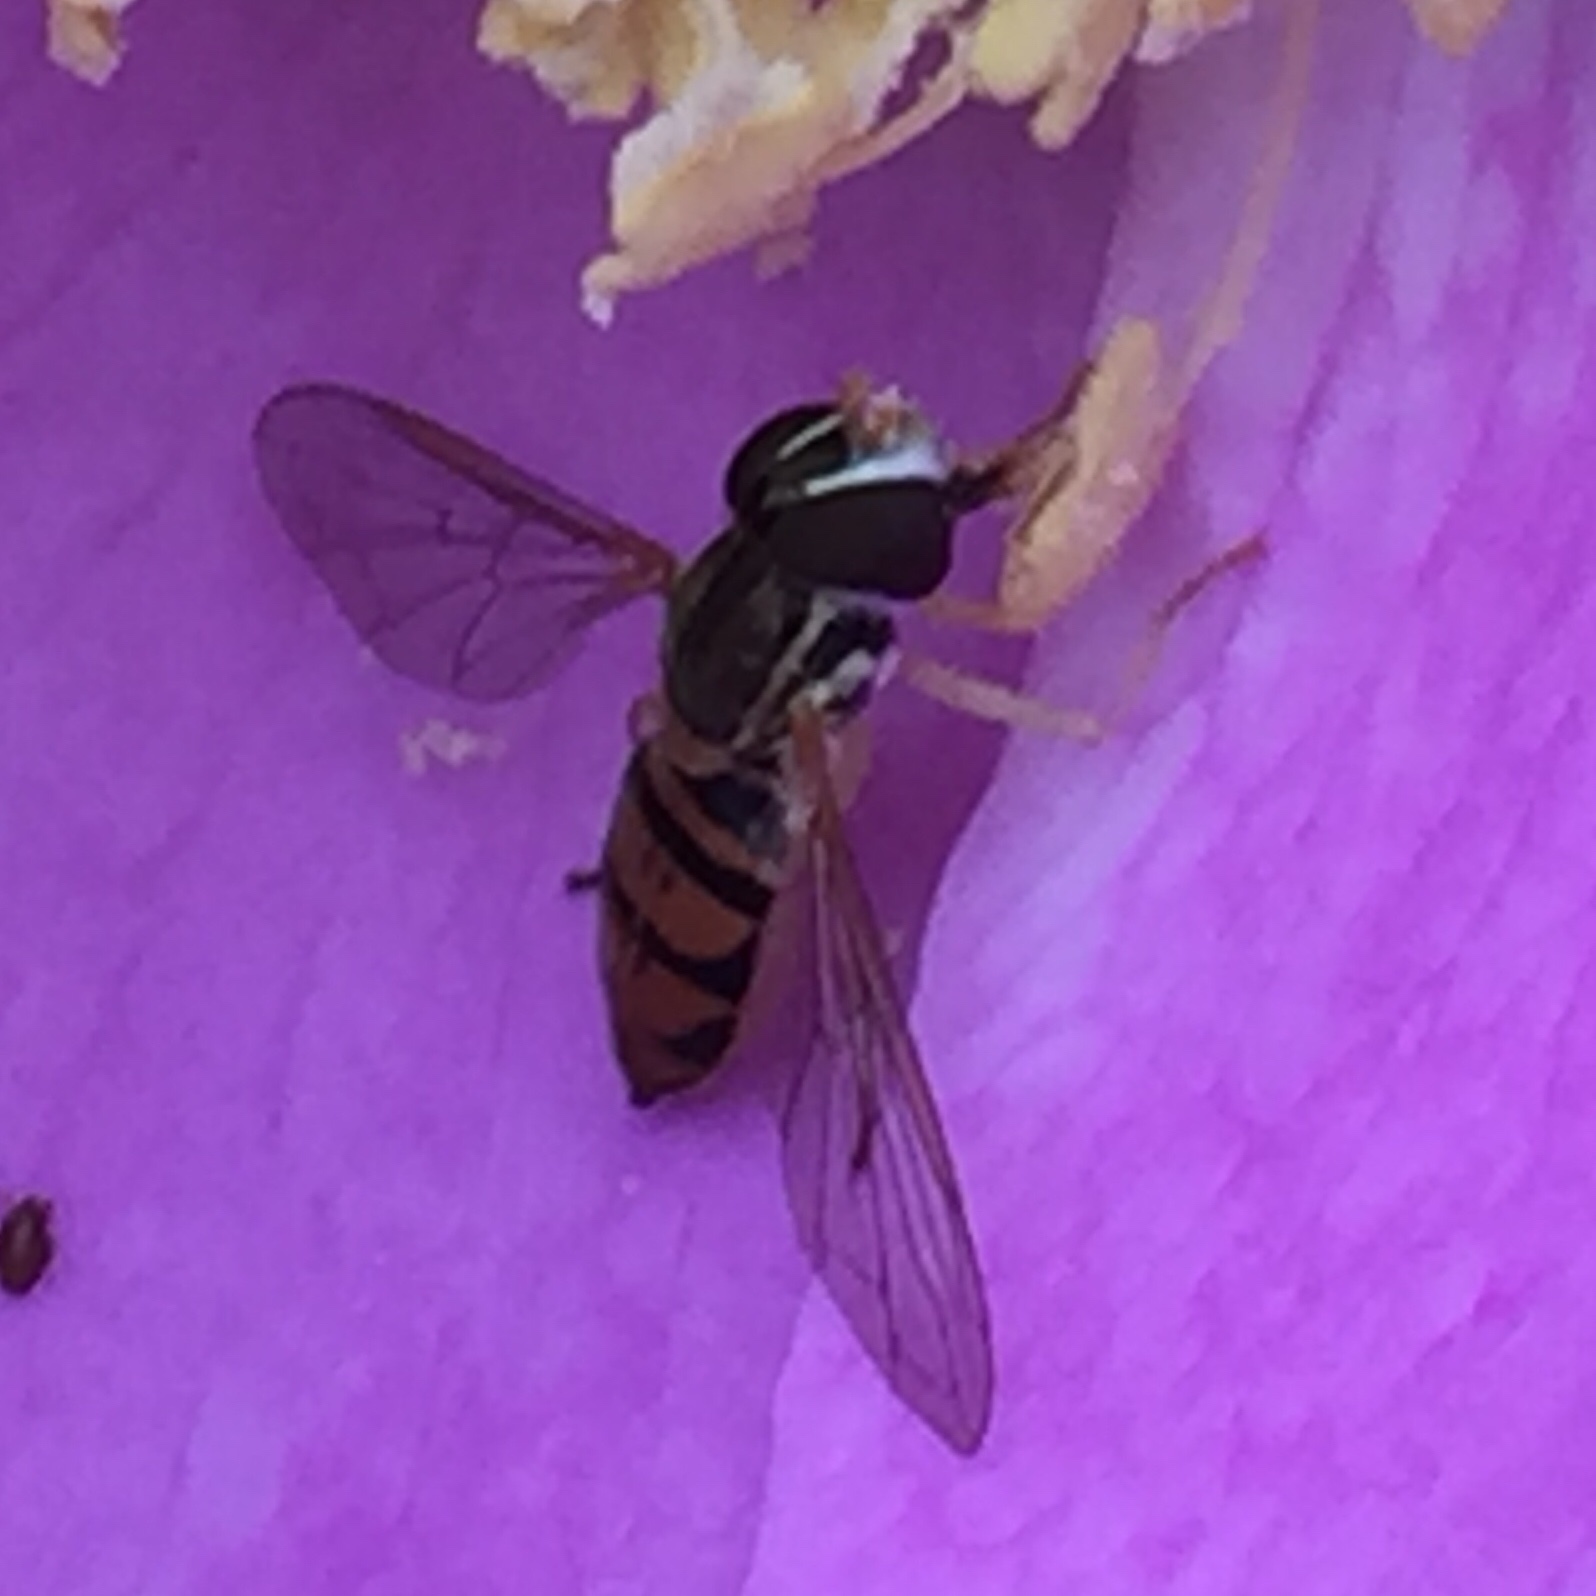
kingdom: Animalia
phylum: Arthropoda
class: Insecta
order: Diptera
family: Syrphidae
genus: Toxomerus
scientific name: Toxomerus marginatus
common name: Syrphid fly
